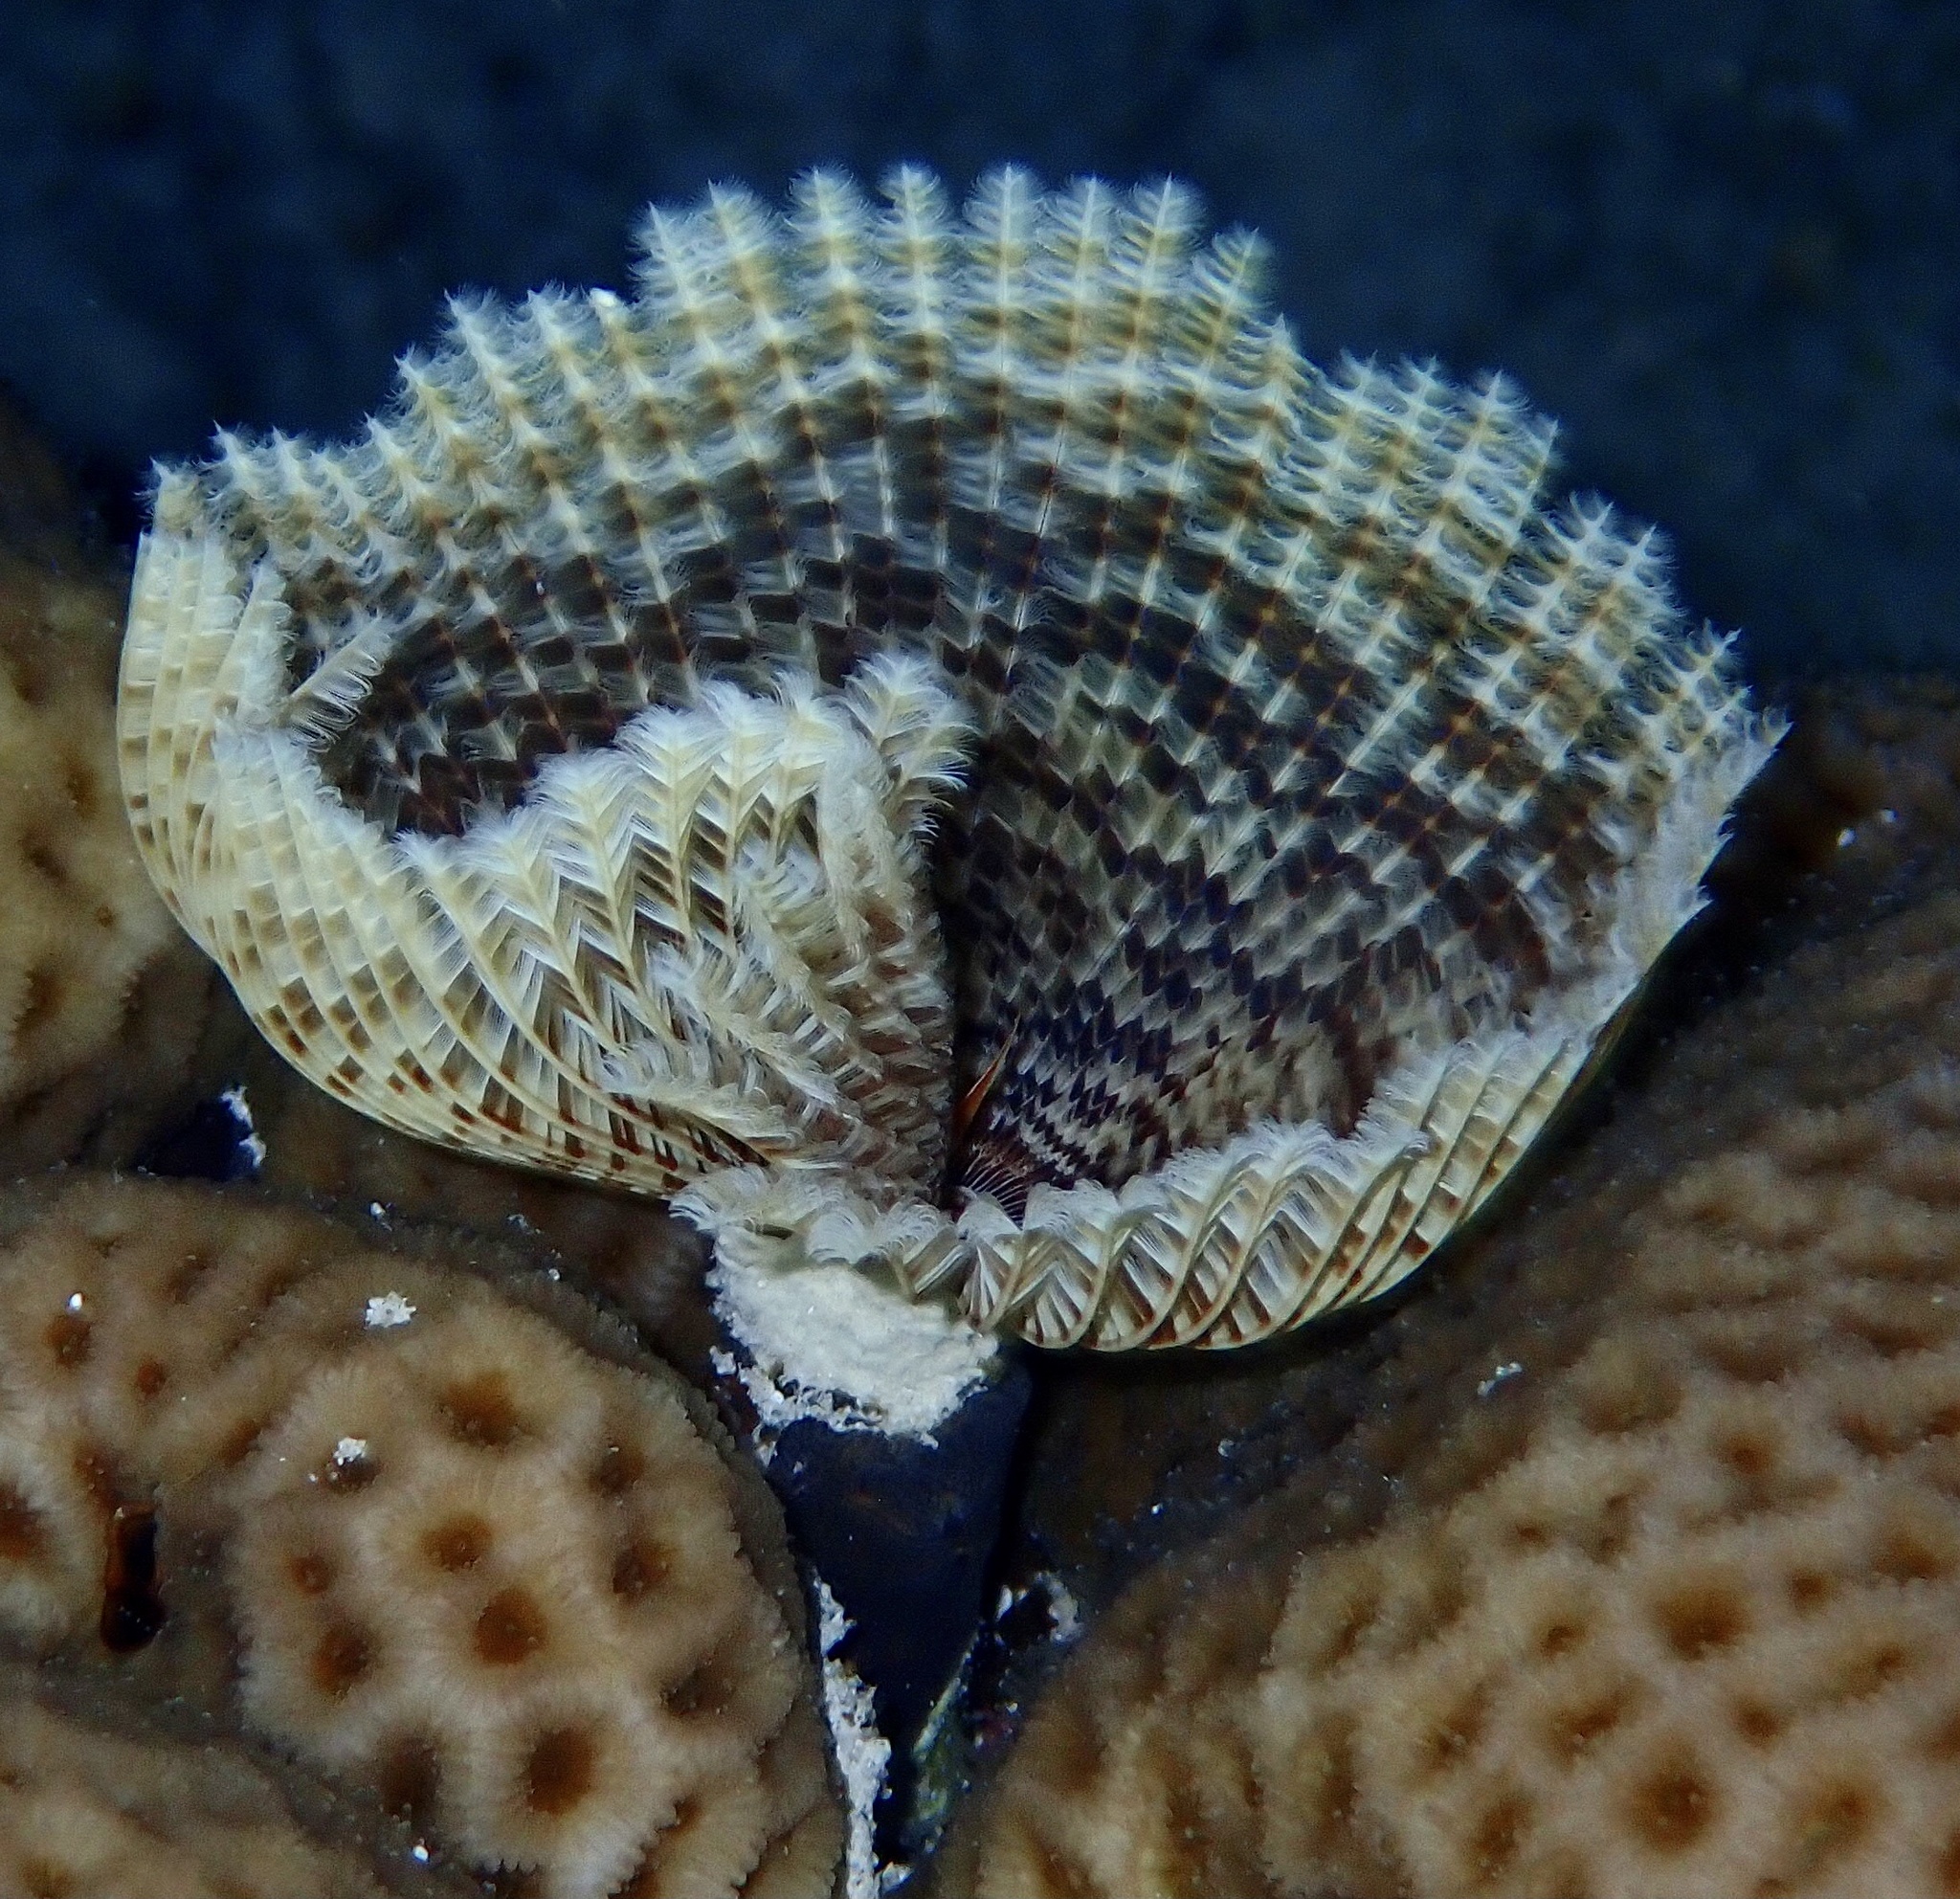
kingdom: Animalia
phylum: Annelida
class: Polychaeta
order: Sabellida
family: Sabellidae
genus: Sabellastarte
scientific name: Sabellastarte spectabilis
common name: Feather duster worm
